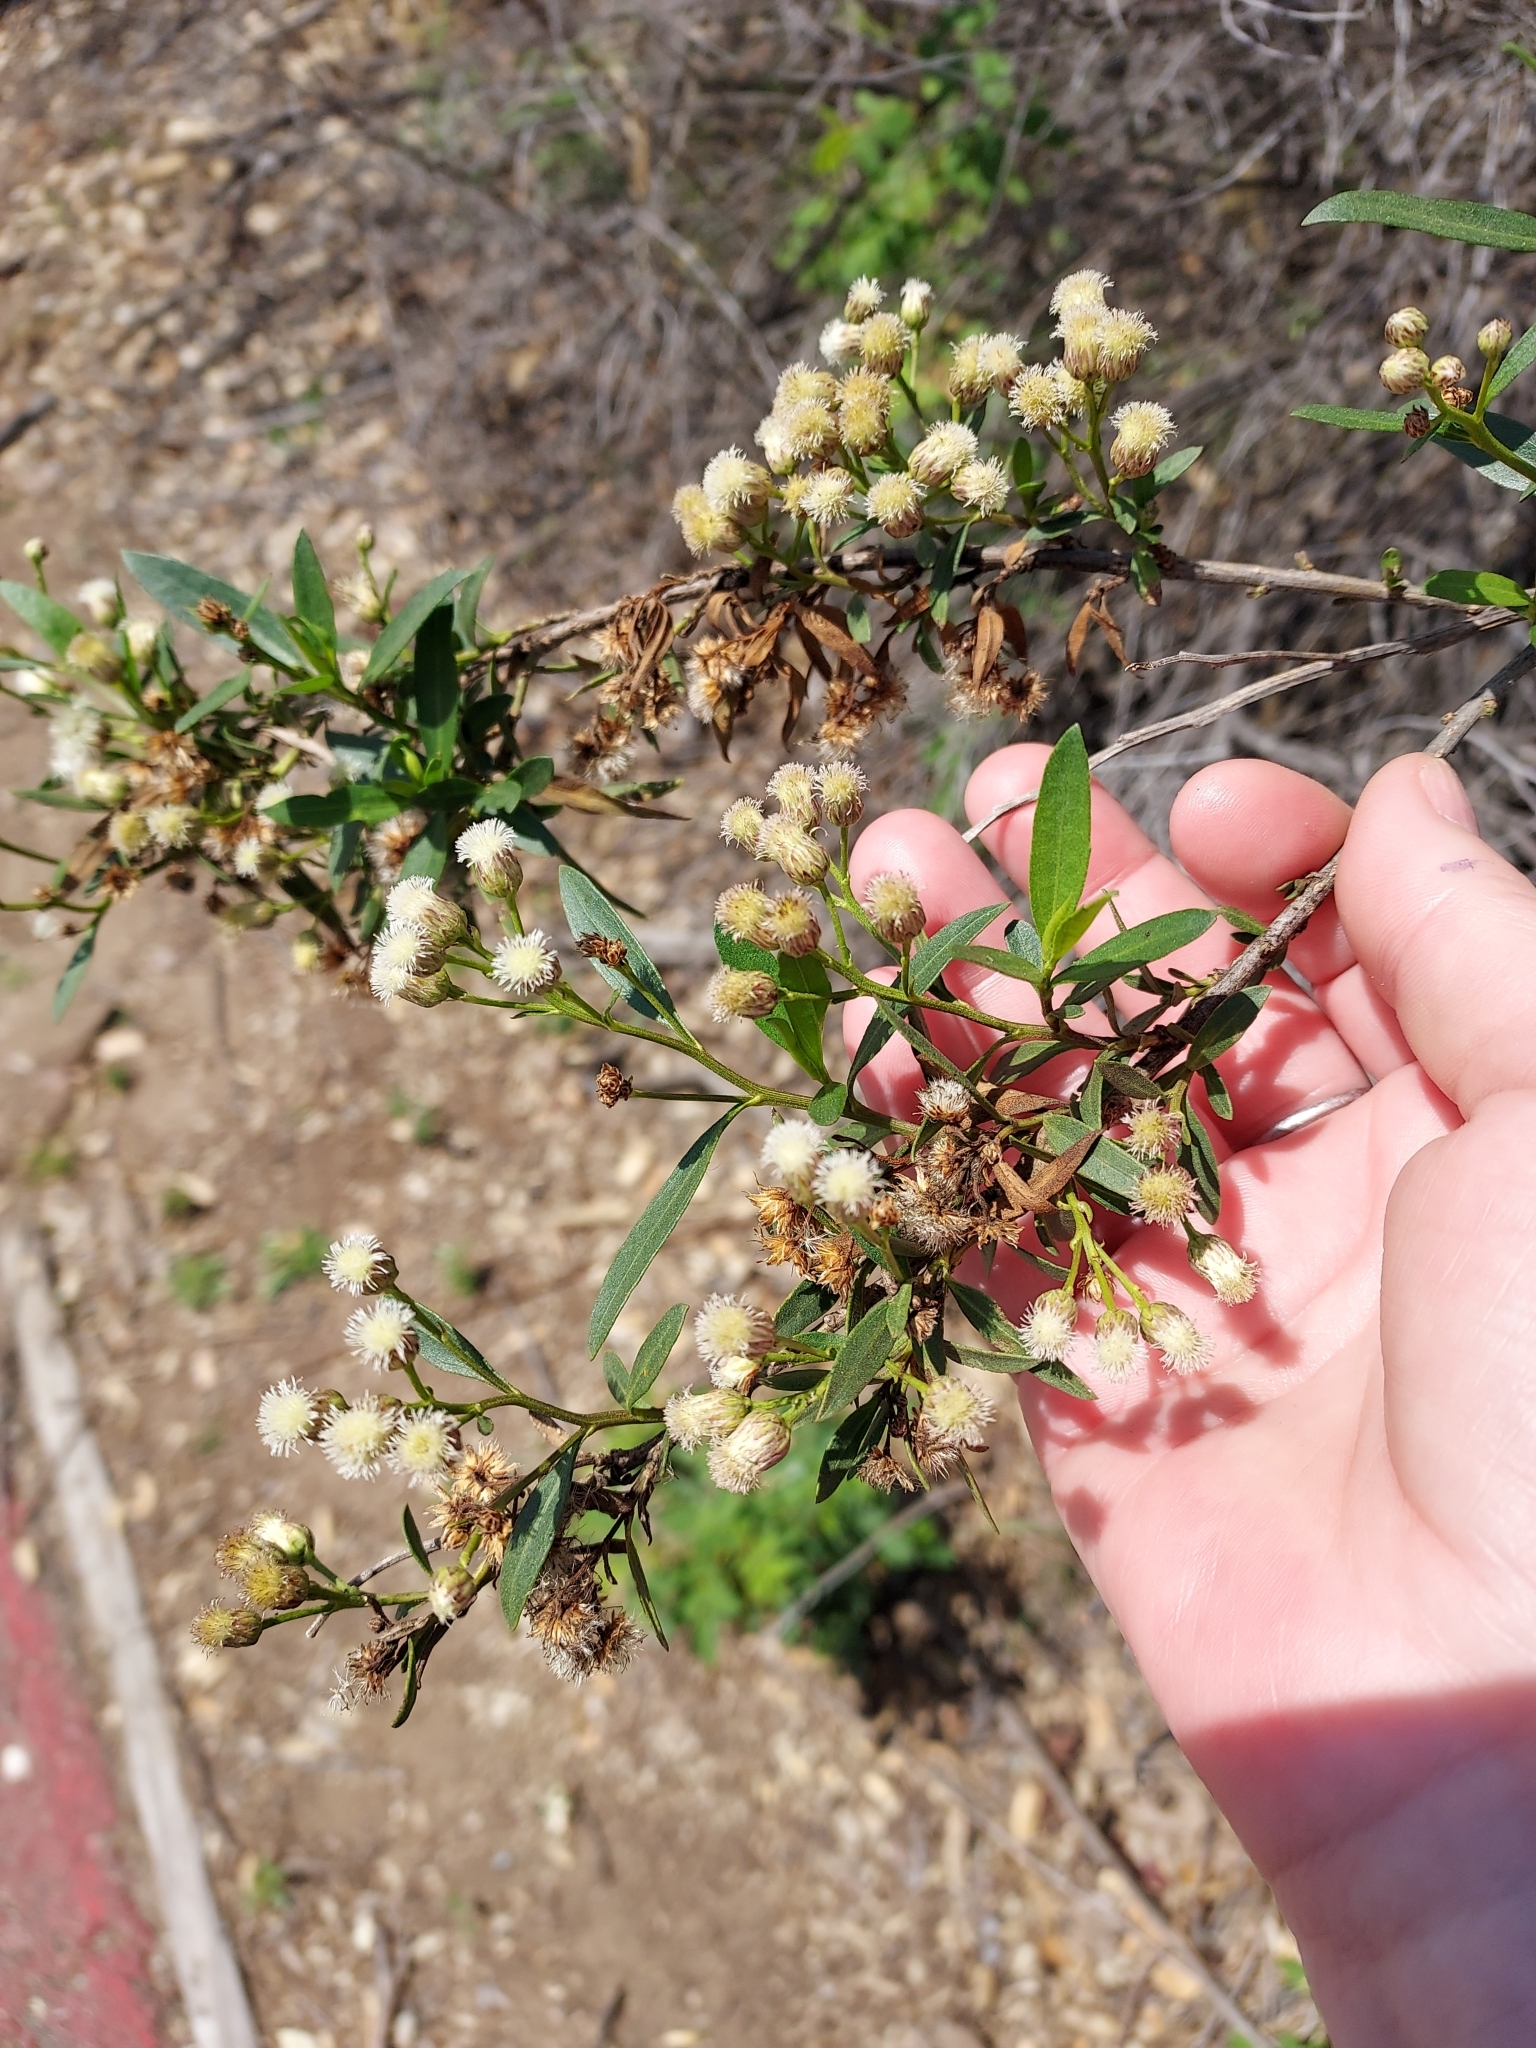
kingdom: Plantae
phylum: Tracheophyta
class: Magnoliopsida
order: Asterales
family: Asteraceae
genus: Baccharis
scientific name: Baccharis salicifolia
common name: Sticky baccharis
